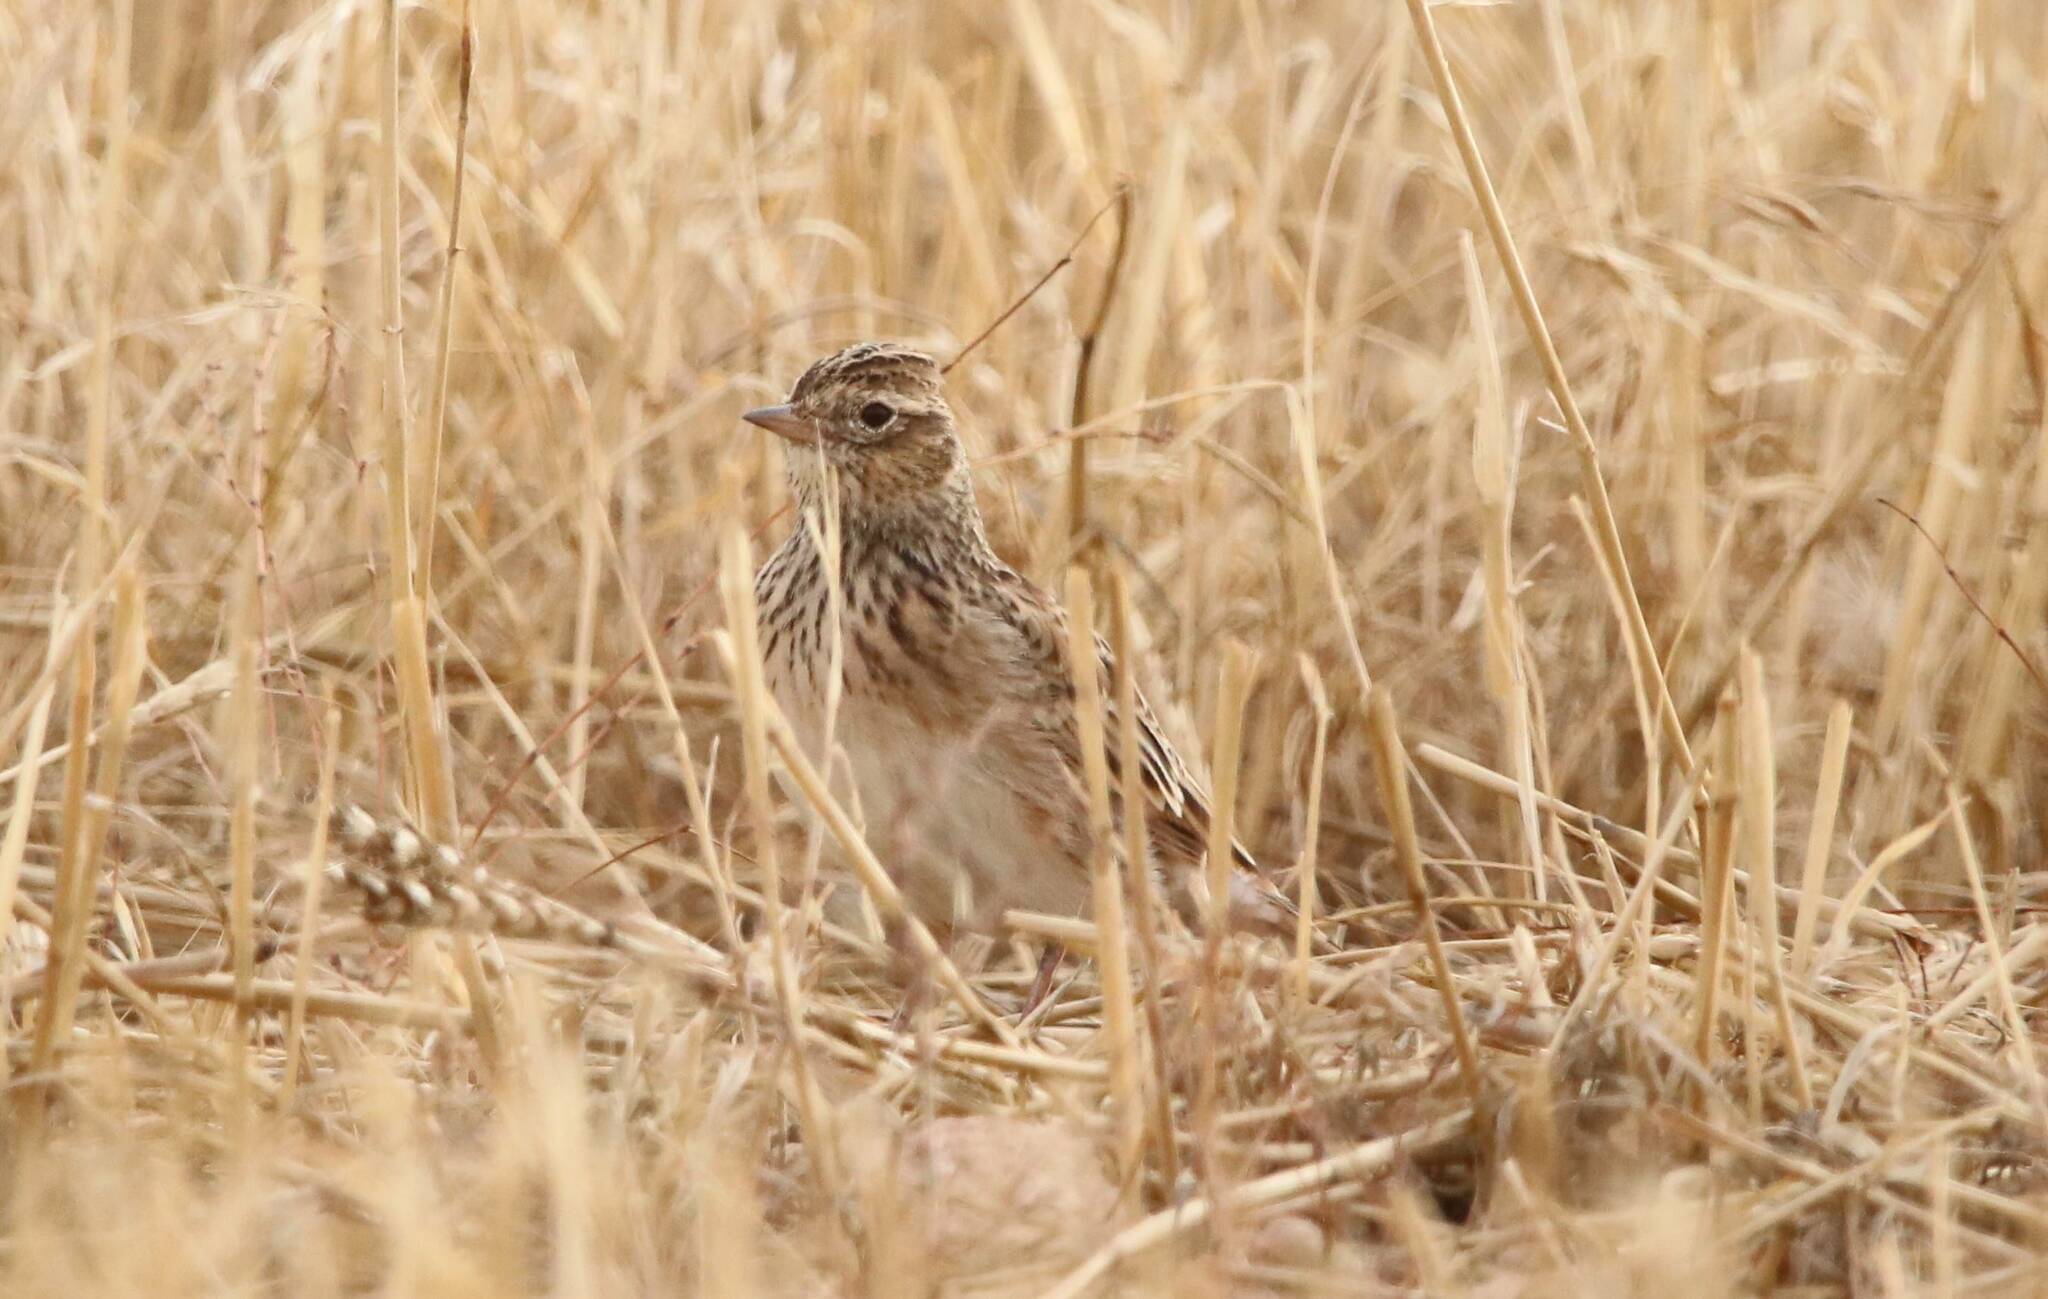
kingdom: Animalia
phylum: Chordata
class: Aves
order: Passeriformes
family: Alaudidae
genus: Alauda
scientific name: Alauda arvensis
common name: Eurasian skylark
